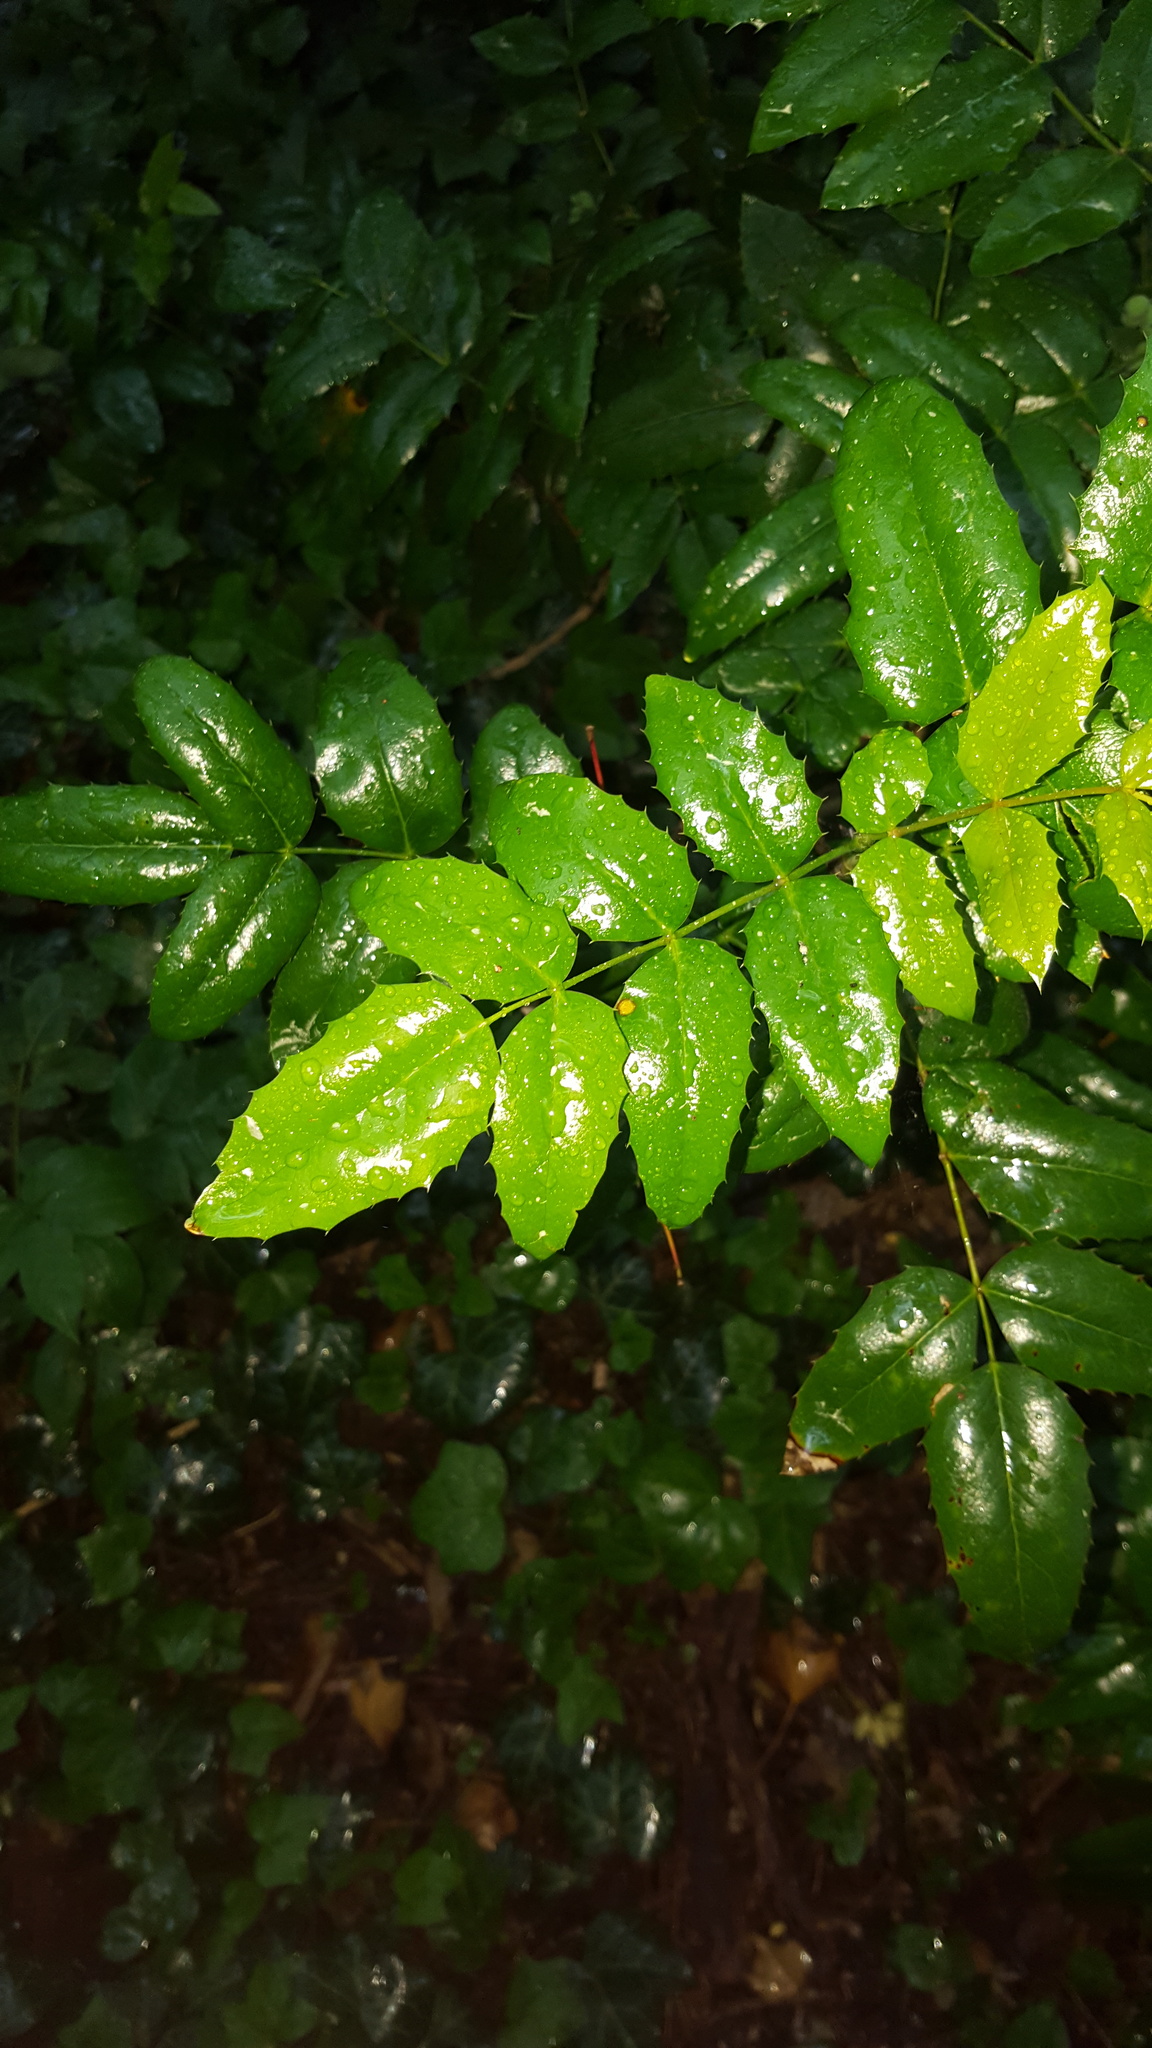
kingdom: Plantae
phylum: Tracheophyta
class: Magnoliopsida
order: Ranunculales
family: Berberidaceae
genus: Mahonia
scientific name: Mahonia aquifolium
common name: Oregon-grape
